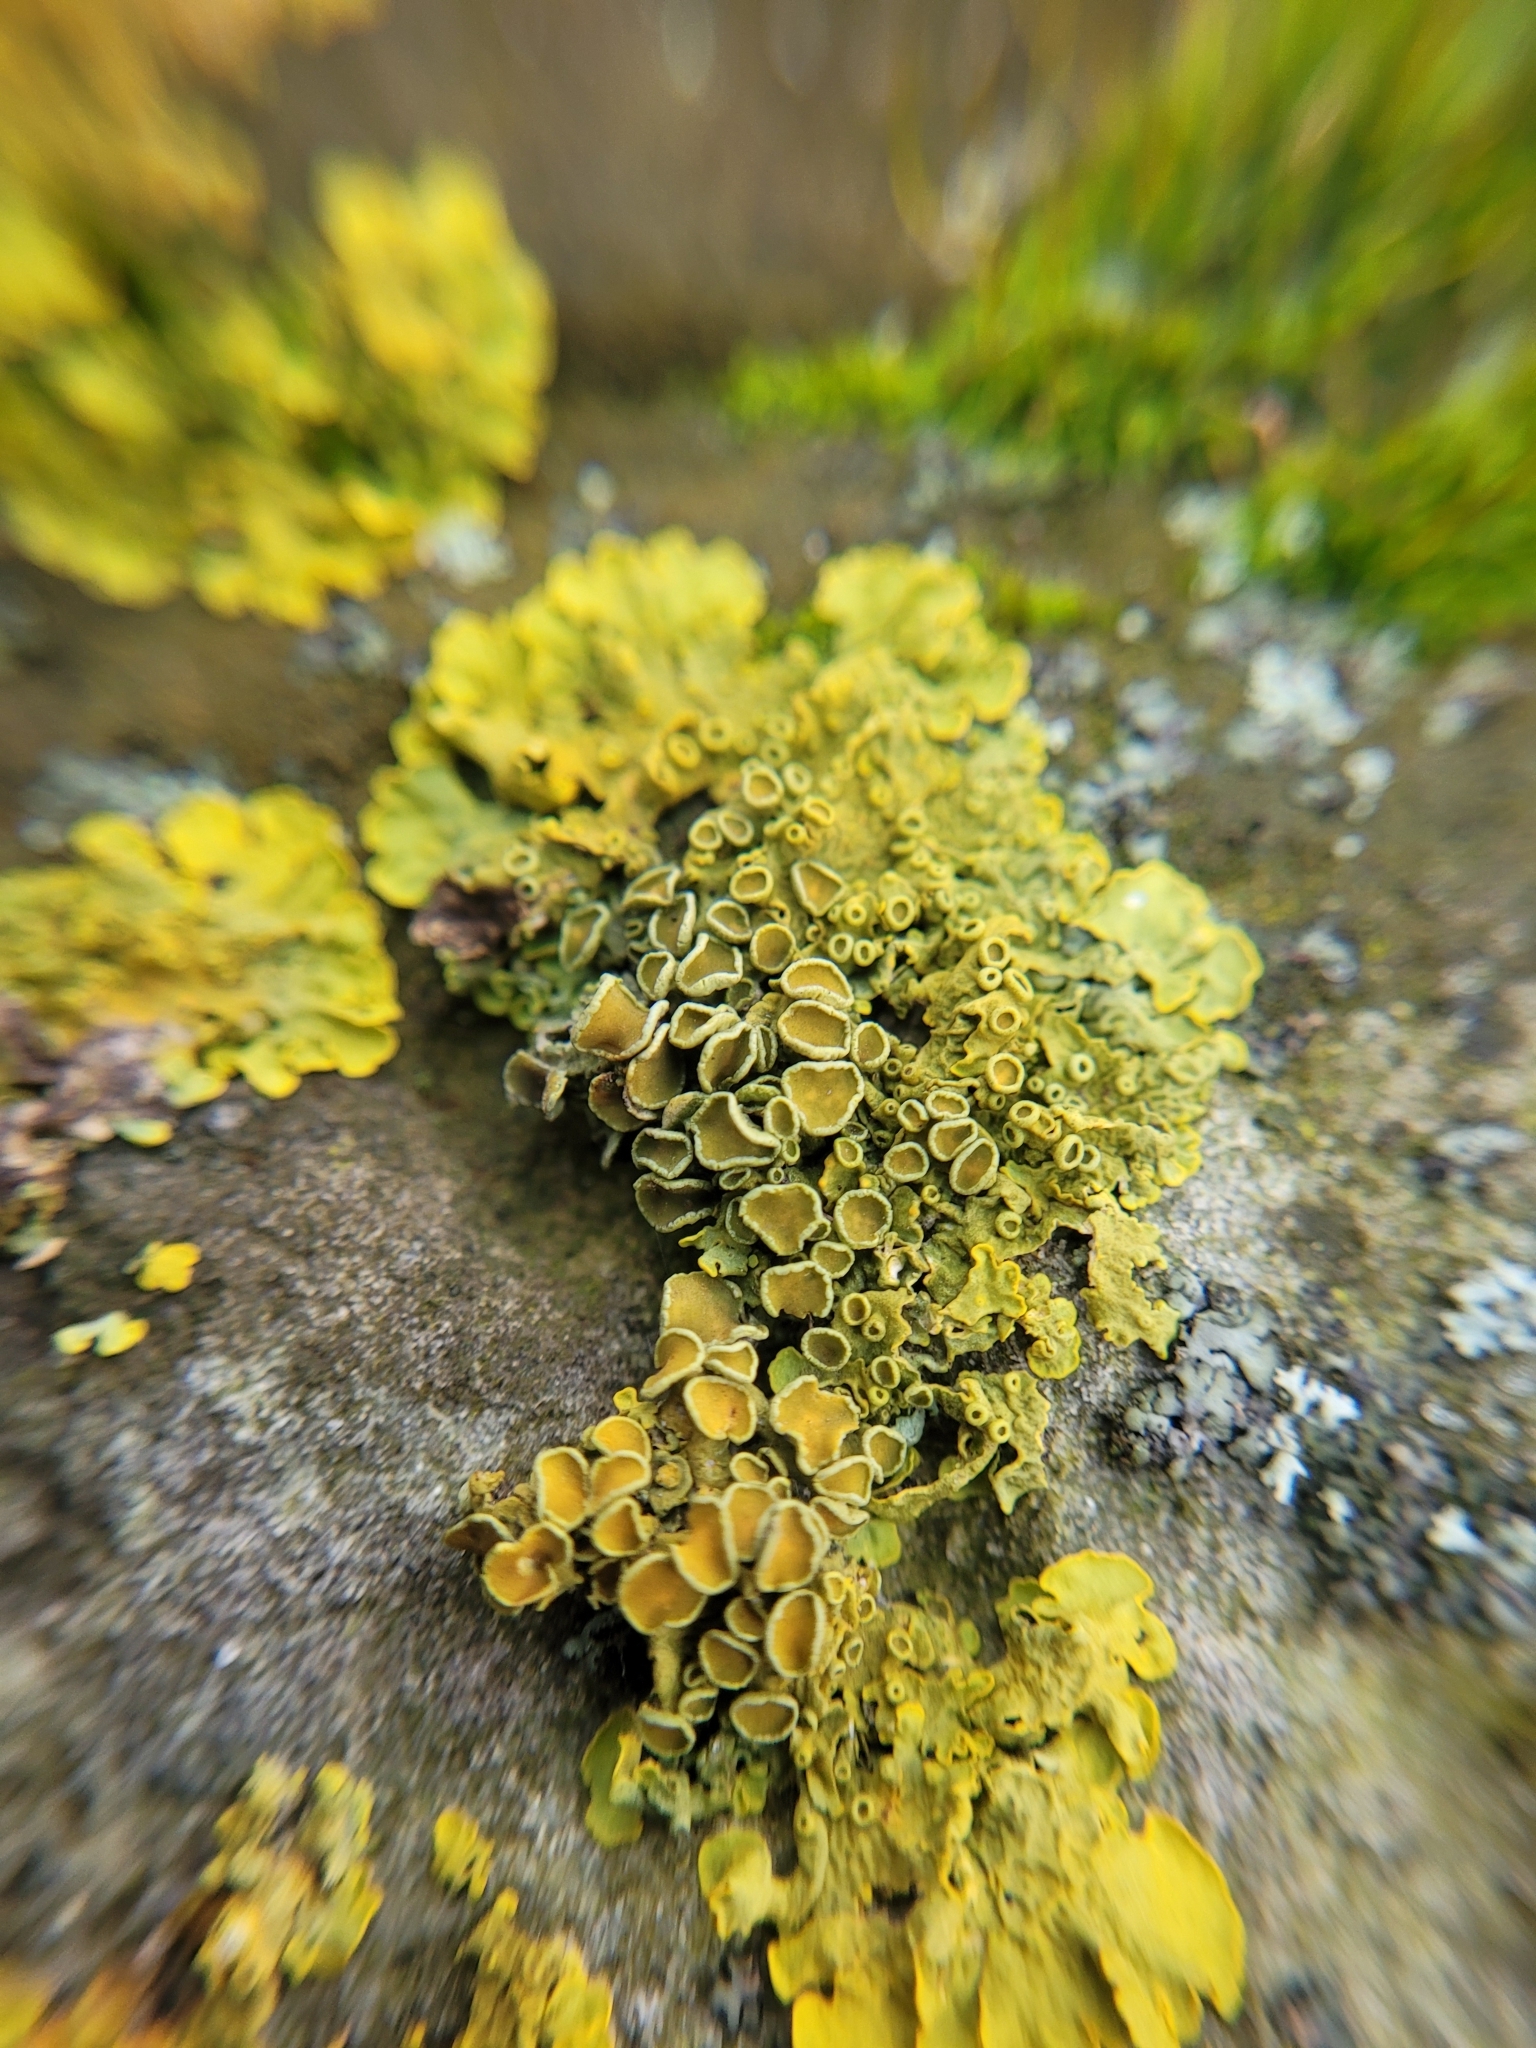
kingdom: Fungi
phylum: Ascomycota
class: Lecanoromycetes
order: Teloschistales
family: Teloschistaceae
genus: Xanthoria
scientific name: Xanthoria parietina
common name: Common orange lichen
